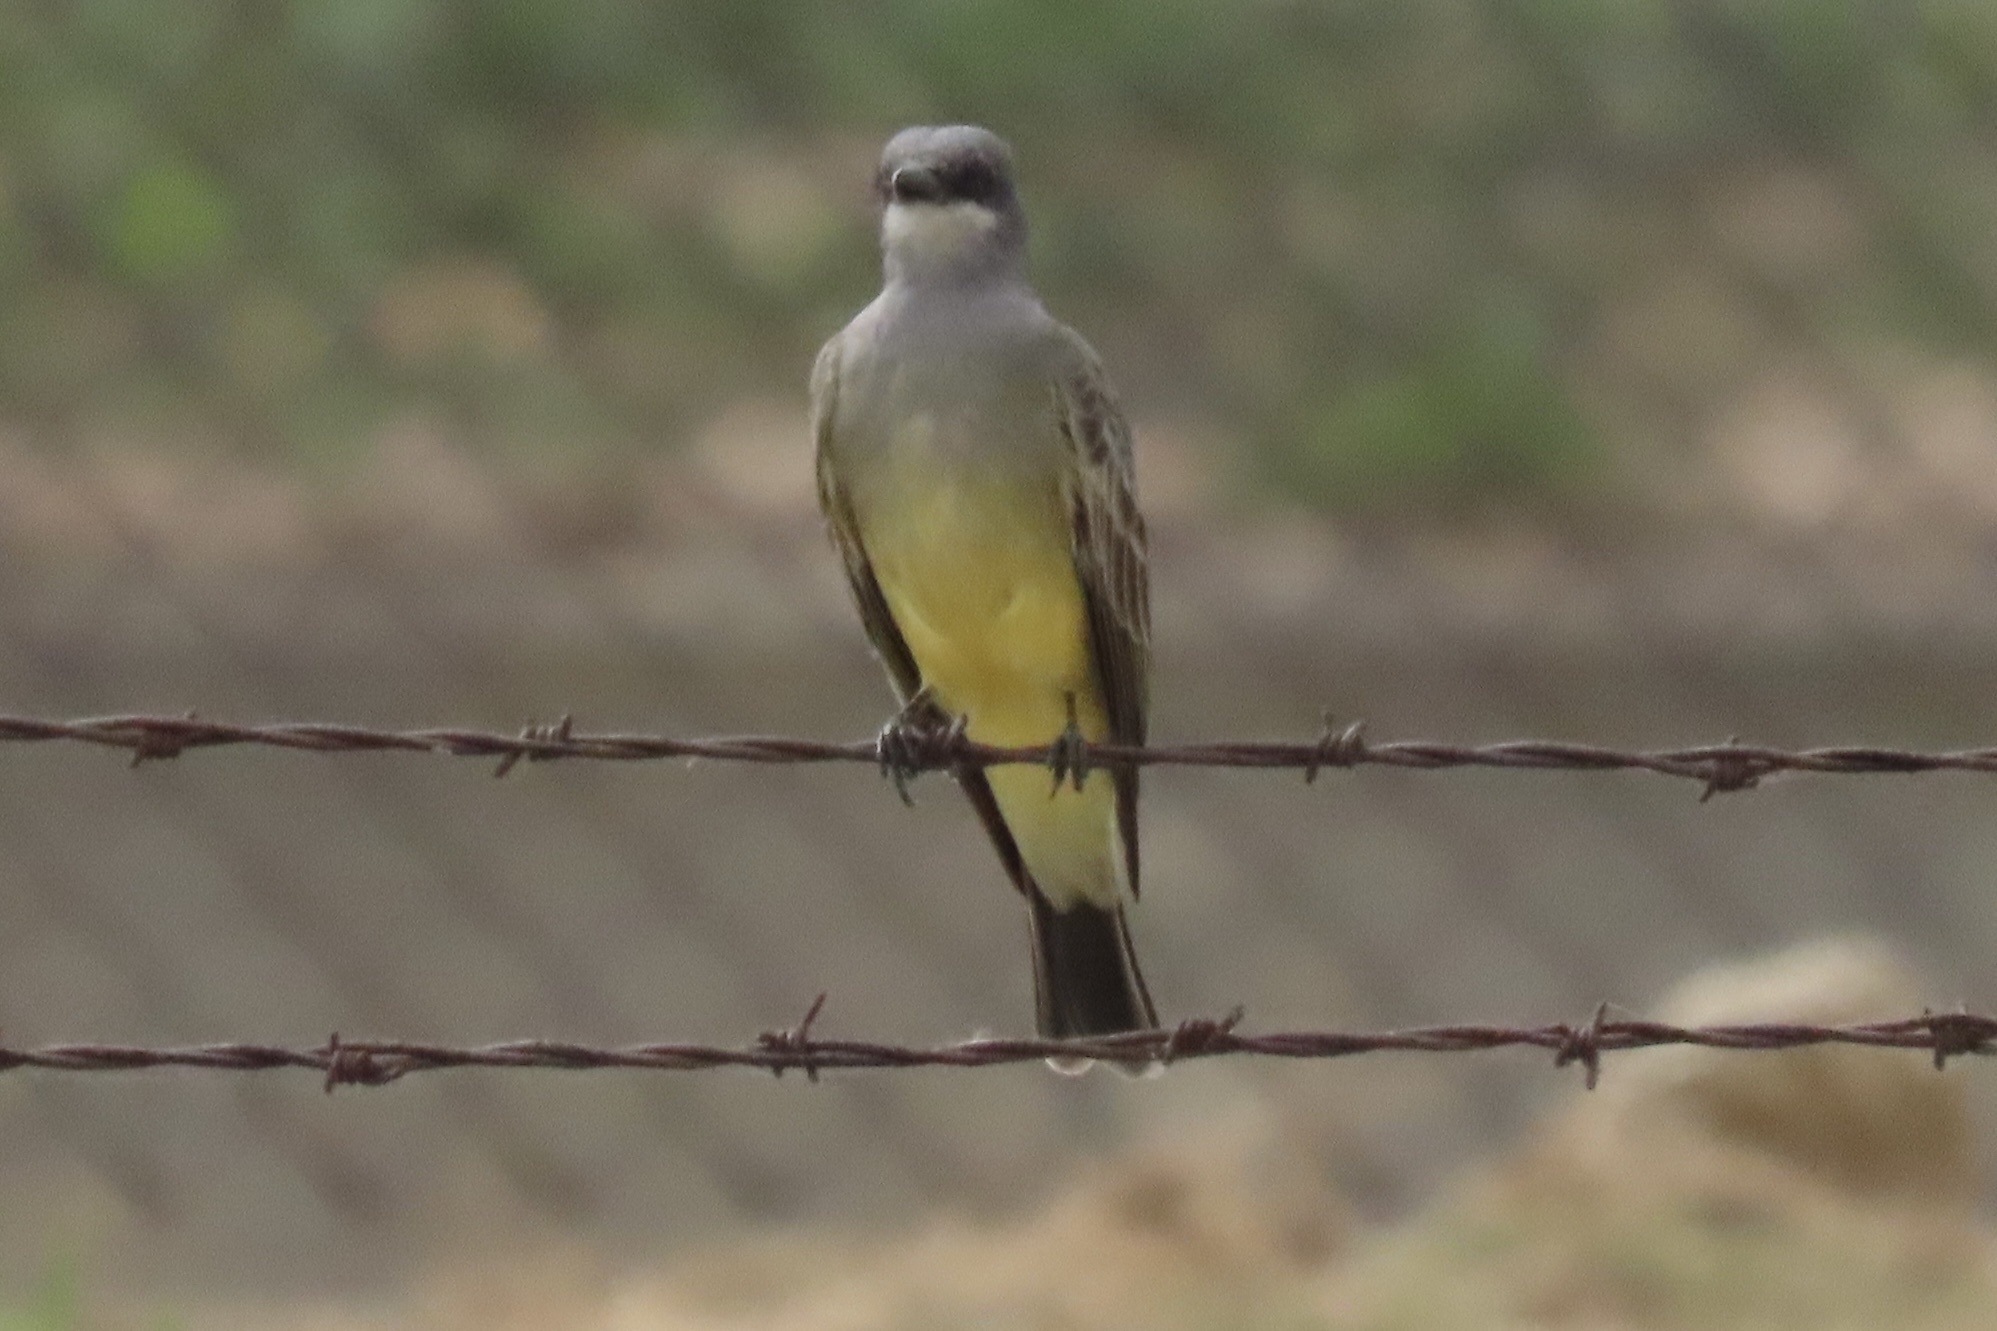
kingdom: Animalia
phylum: Chordata
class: Aves
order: Passeriformes
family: Tyrannidae
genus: Tyrannus
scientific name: Tyrannus vociferans
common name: Cassin's kingbird
